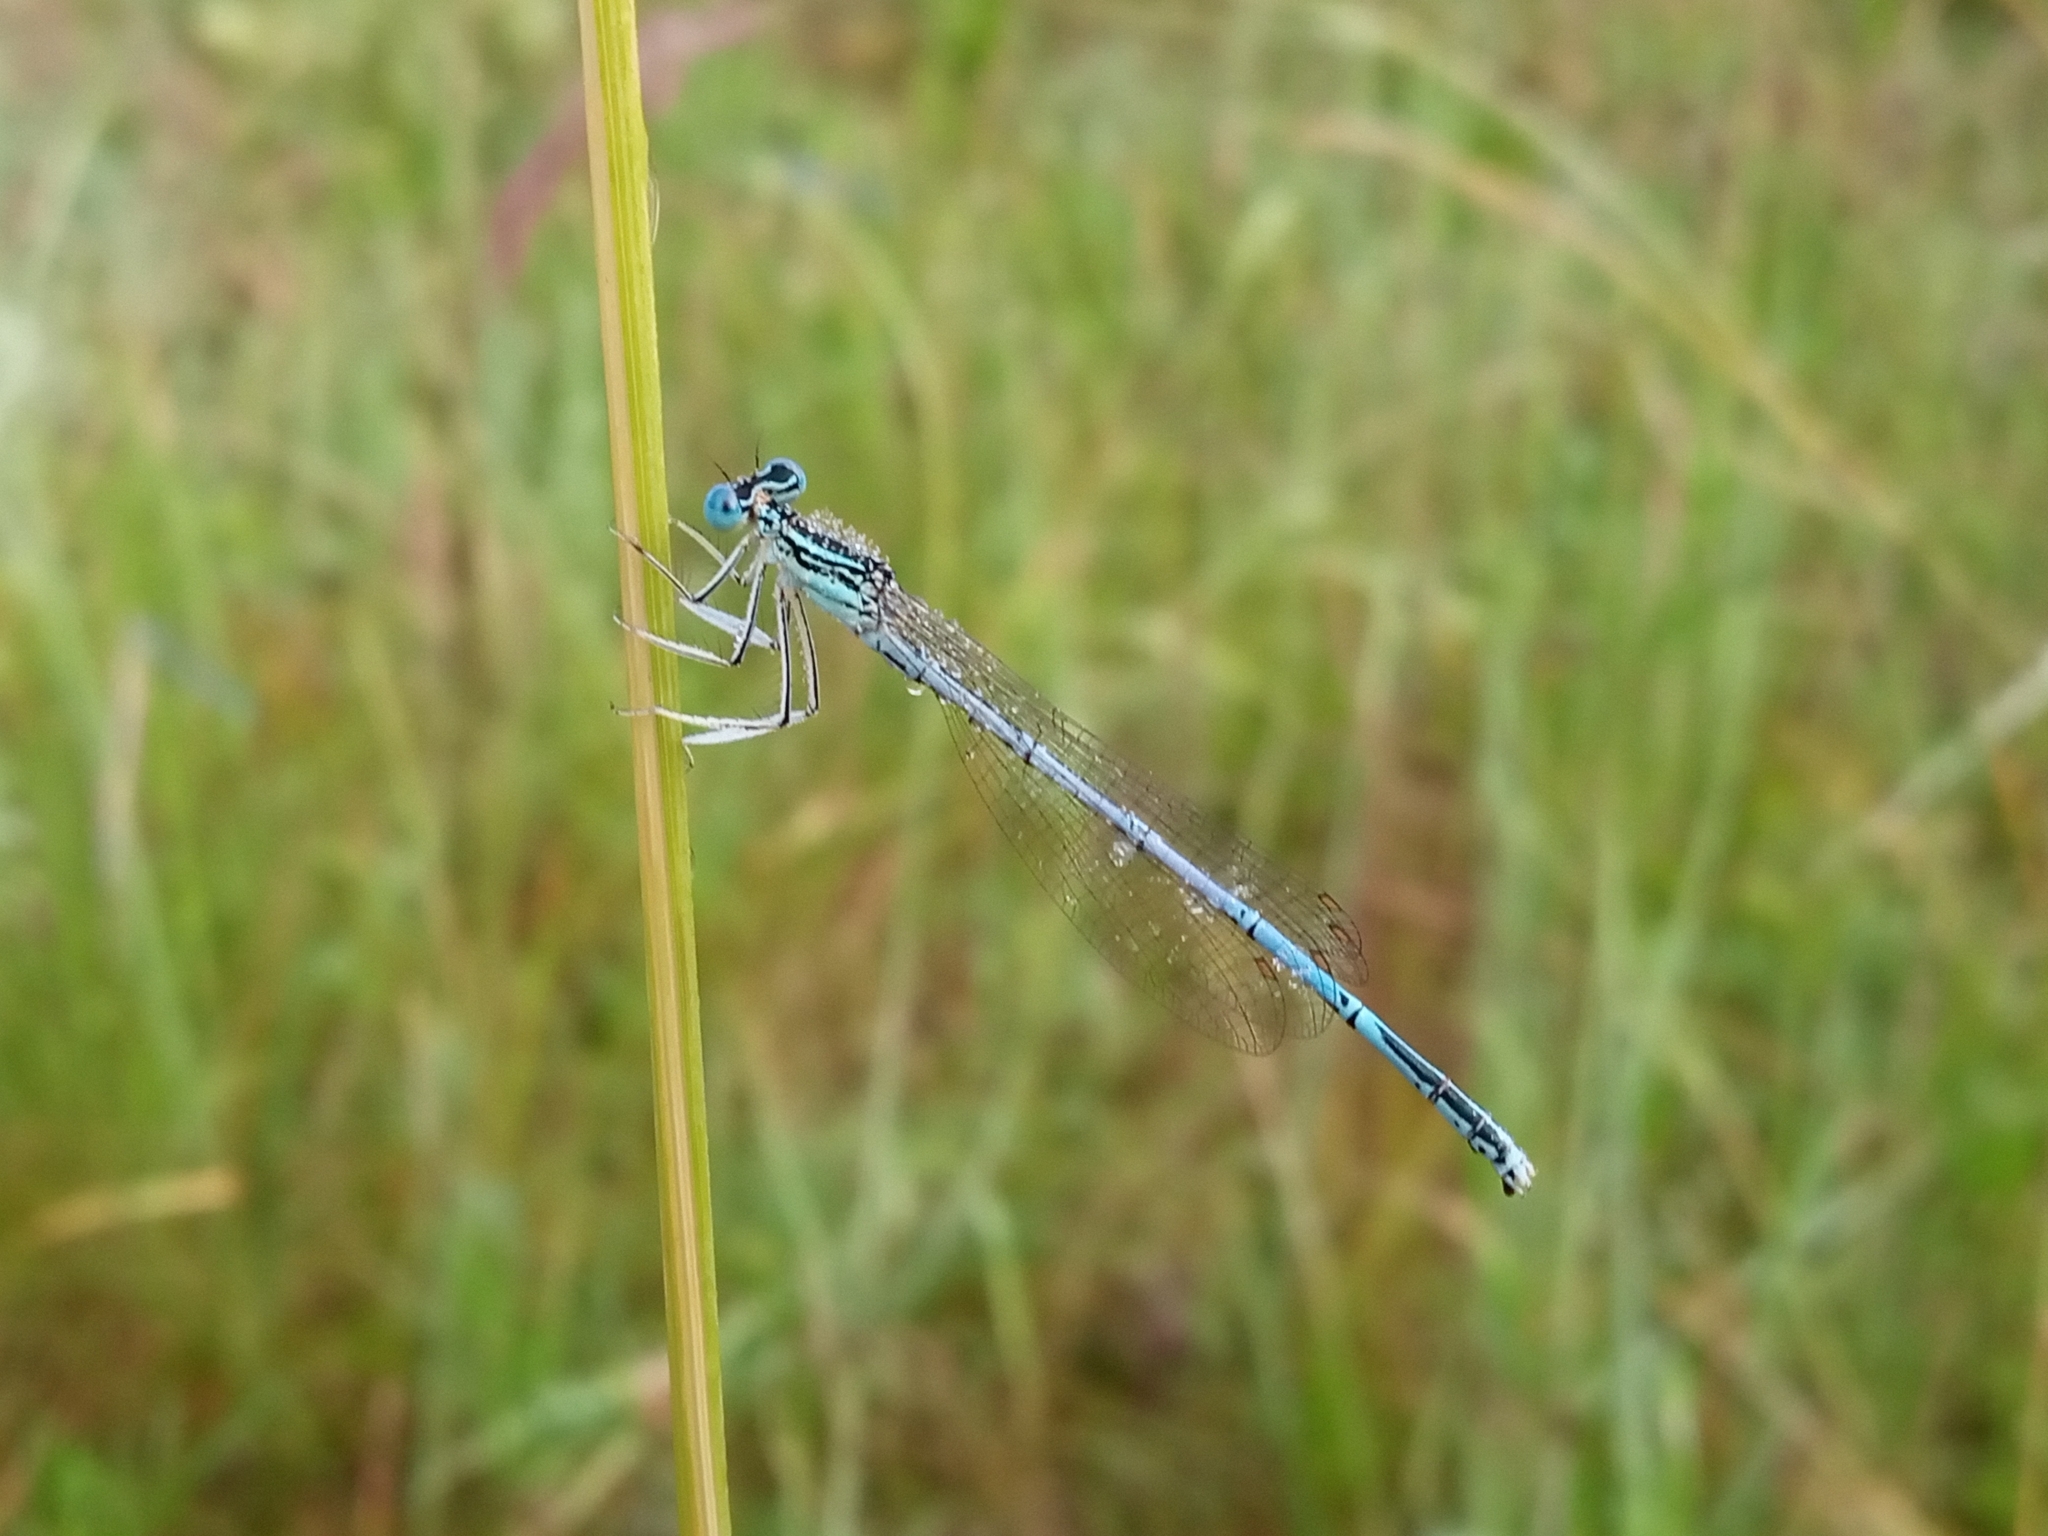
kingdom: Animalia
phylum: Arthropoda
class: Insecta
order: Odonata
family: Platycnemididae
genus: Platycnemis
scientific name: Platycnemis pennipes
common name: White-legged damselfly
